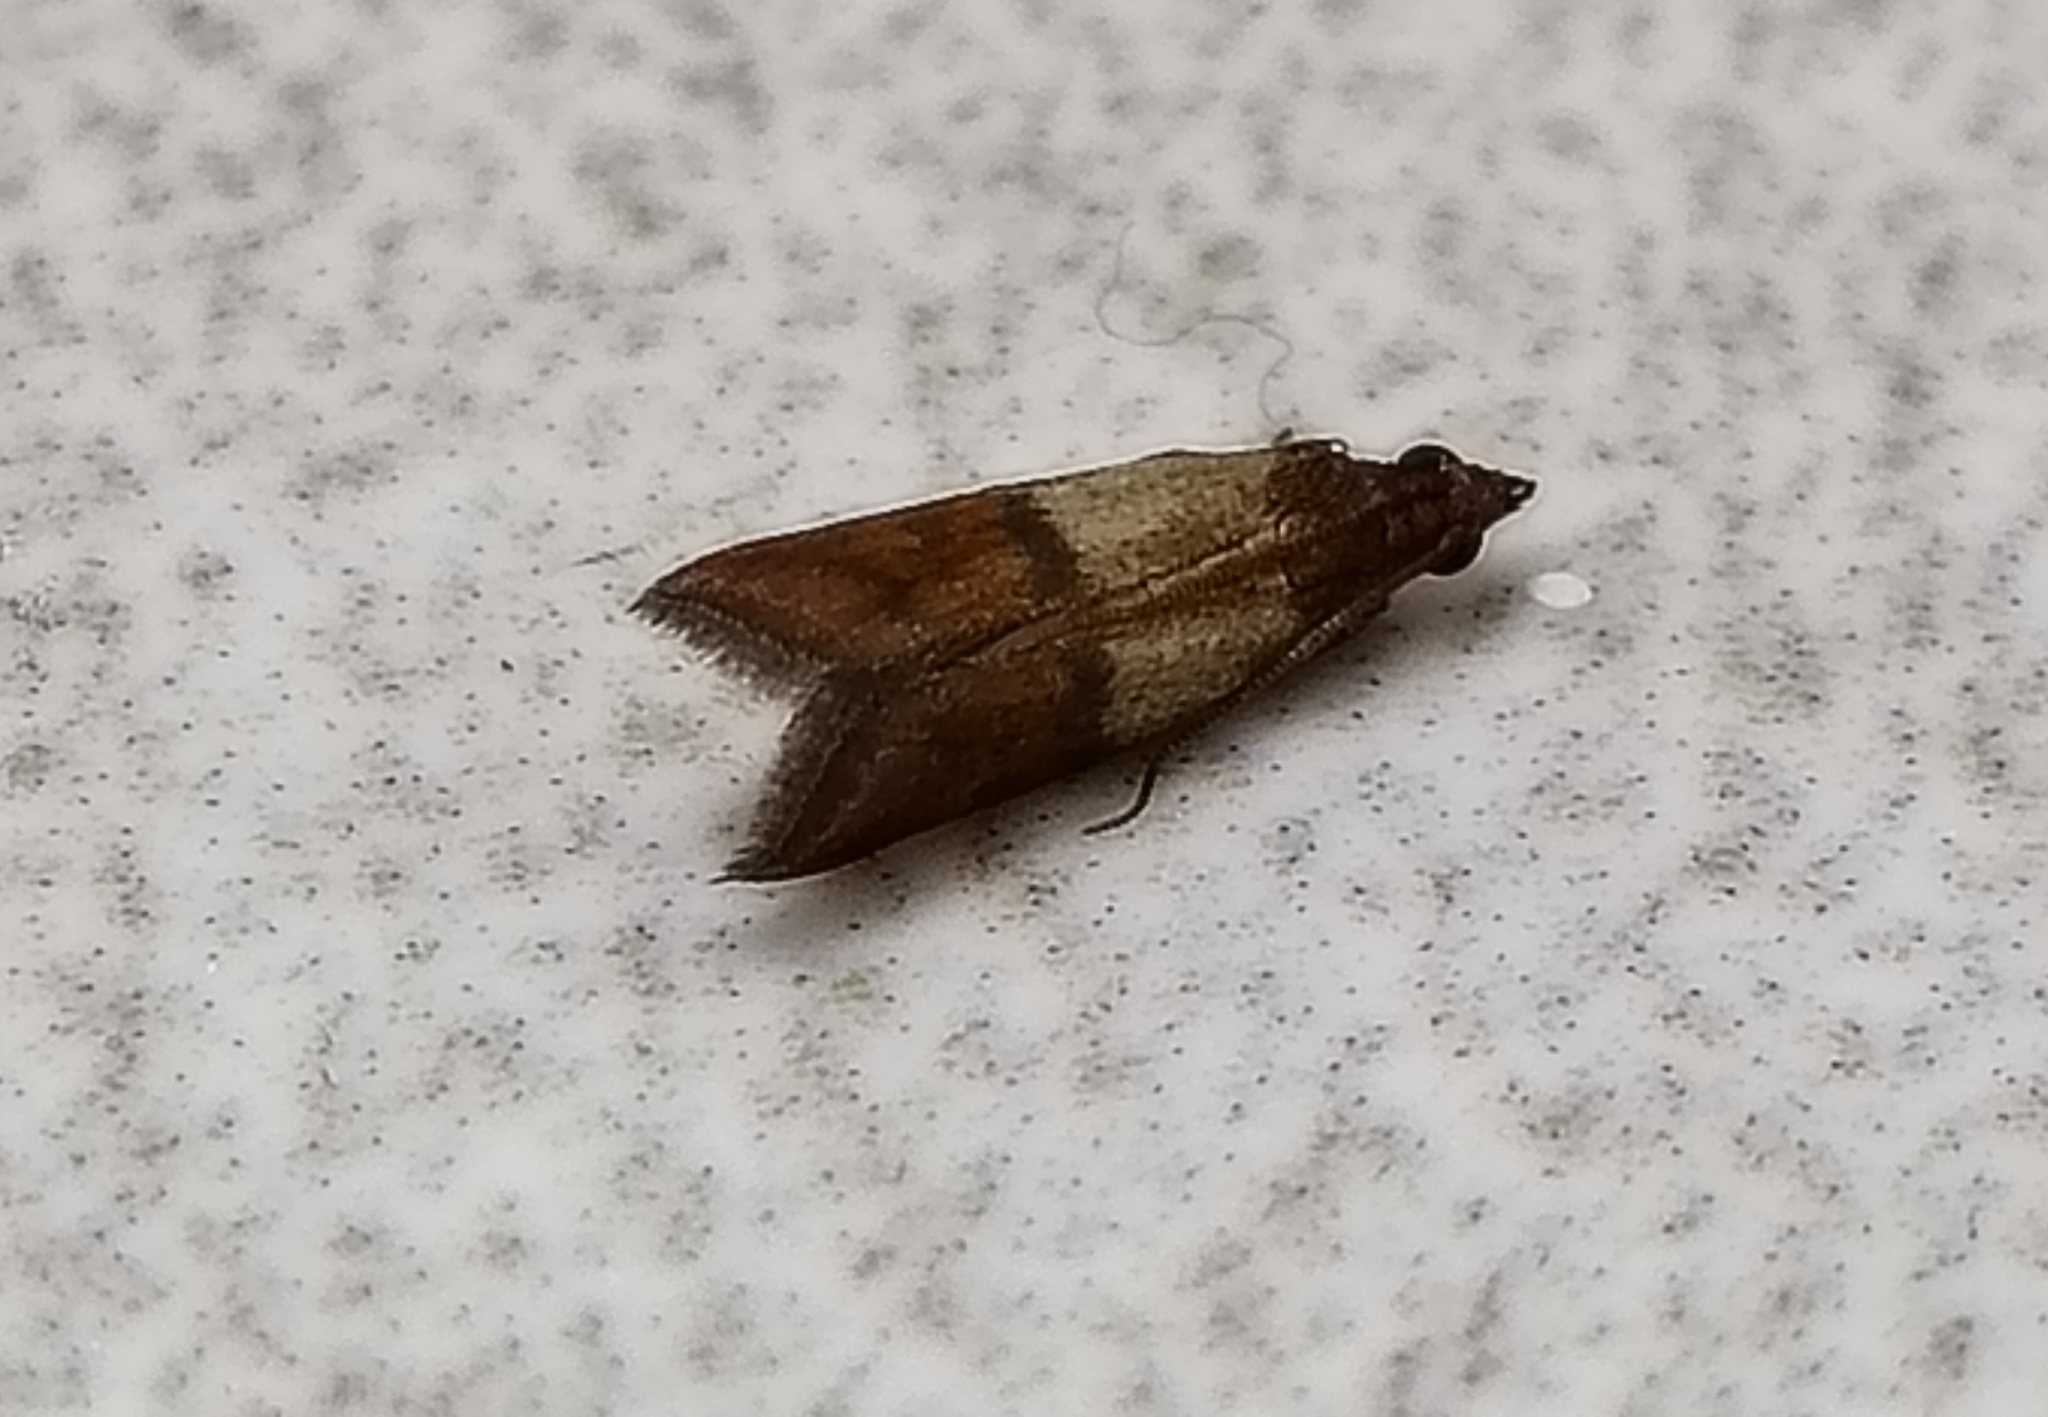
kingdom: Animalia
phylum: Arthropoda
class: Insecta
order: Lepidoptera
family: Pyralidae
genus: Plodia
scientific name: Plodia interpunctella
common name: Indian meal moth
